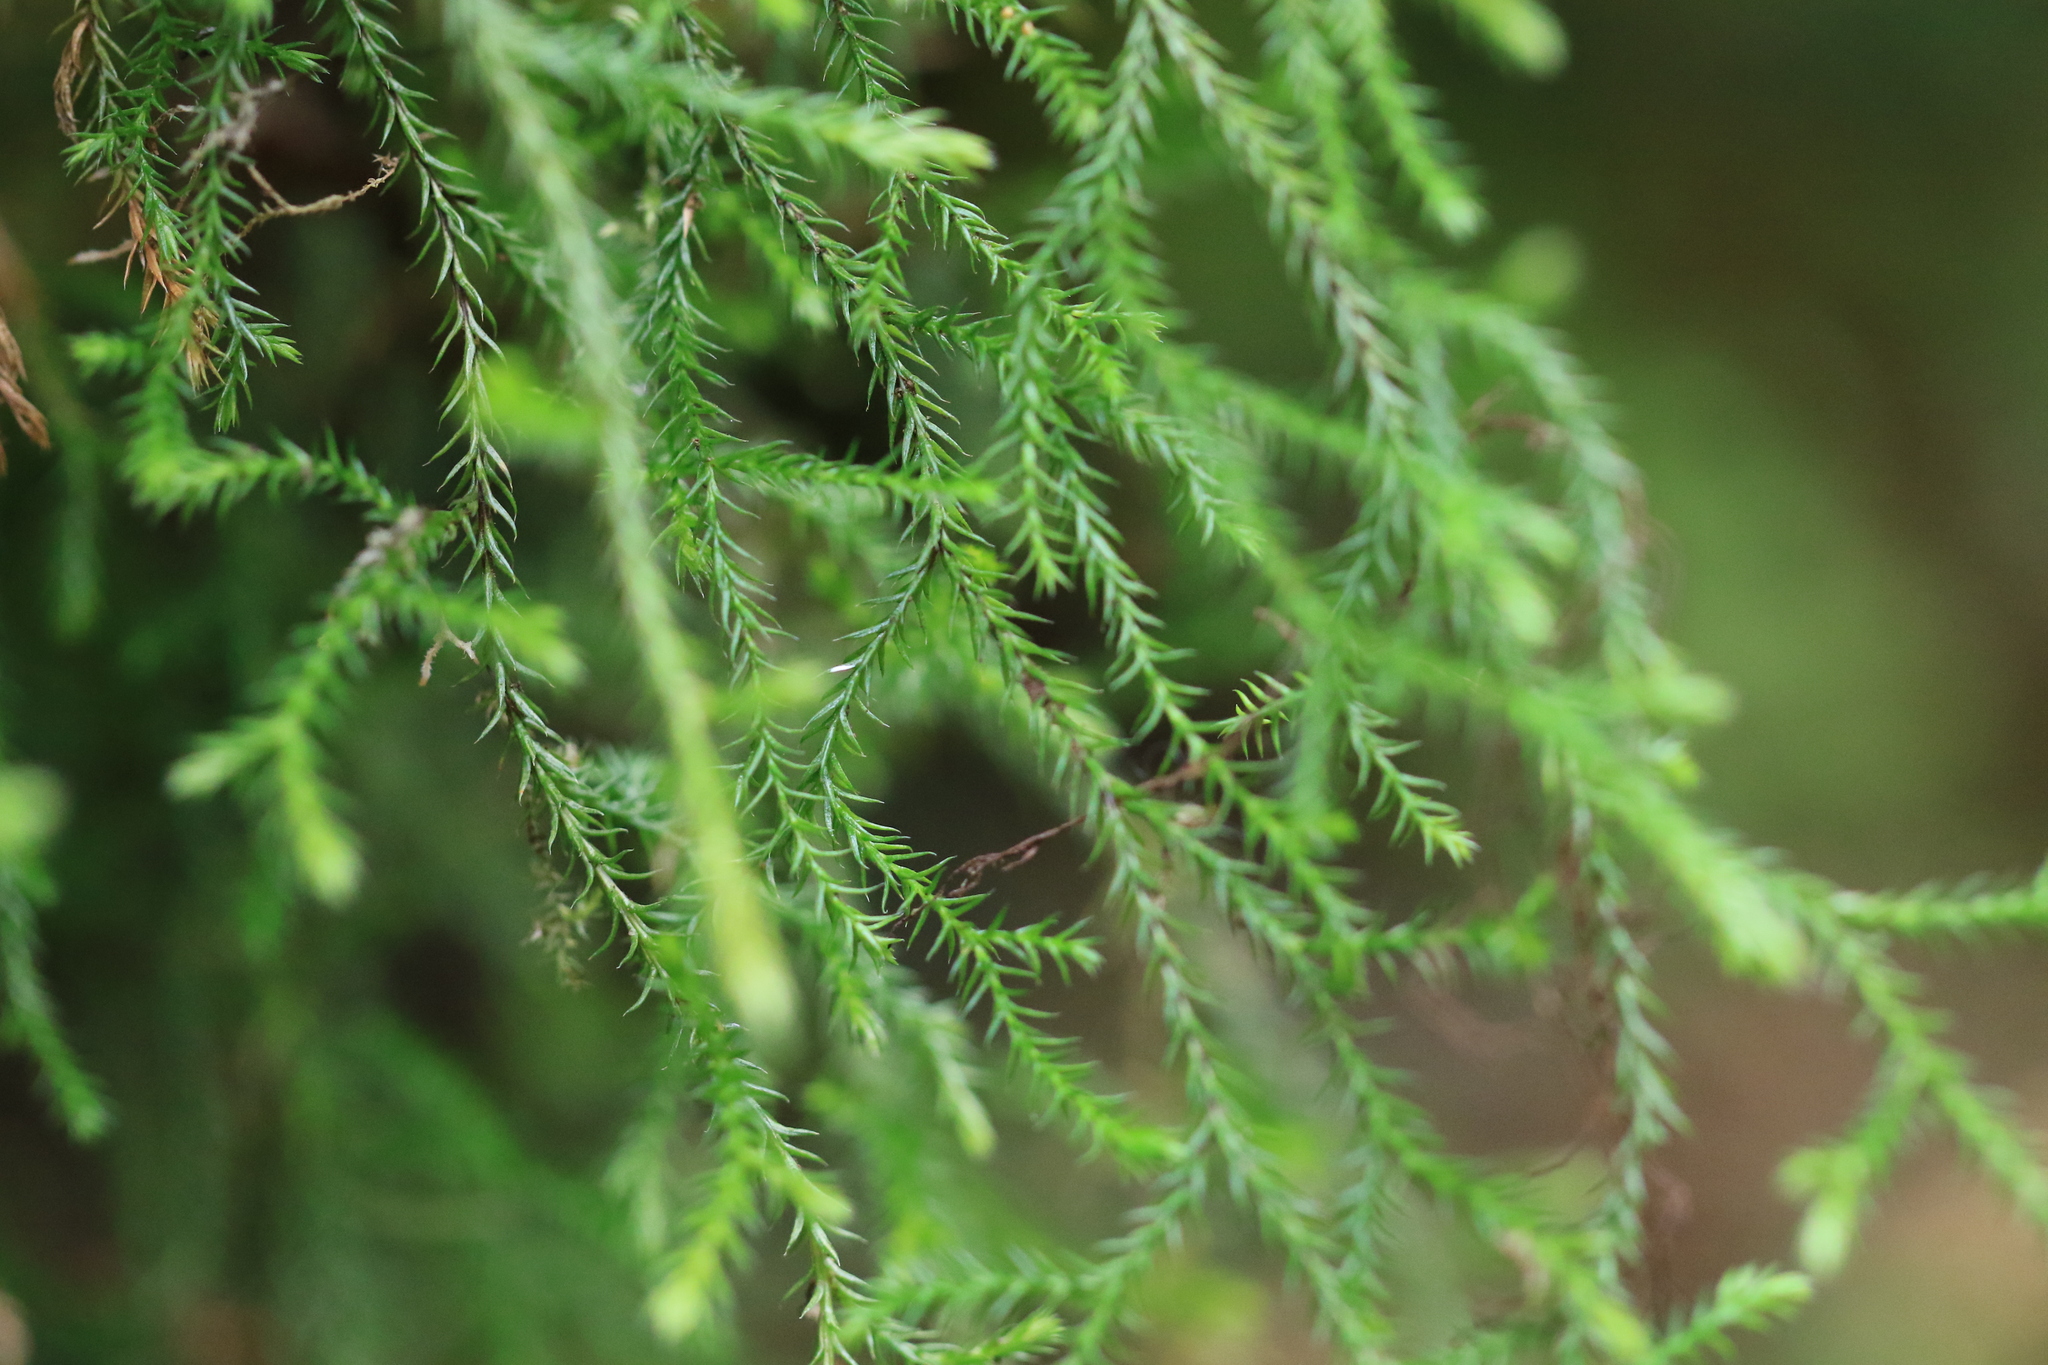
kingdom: Plantae
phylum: Tracheophyta
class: Lycopodiopsida
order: Selaginellales
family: Selaginellaceae
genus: Selaginella
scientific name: Selaginella oregana
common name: Oregon selaginella
